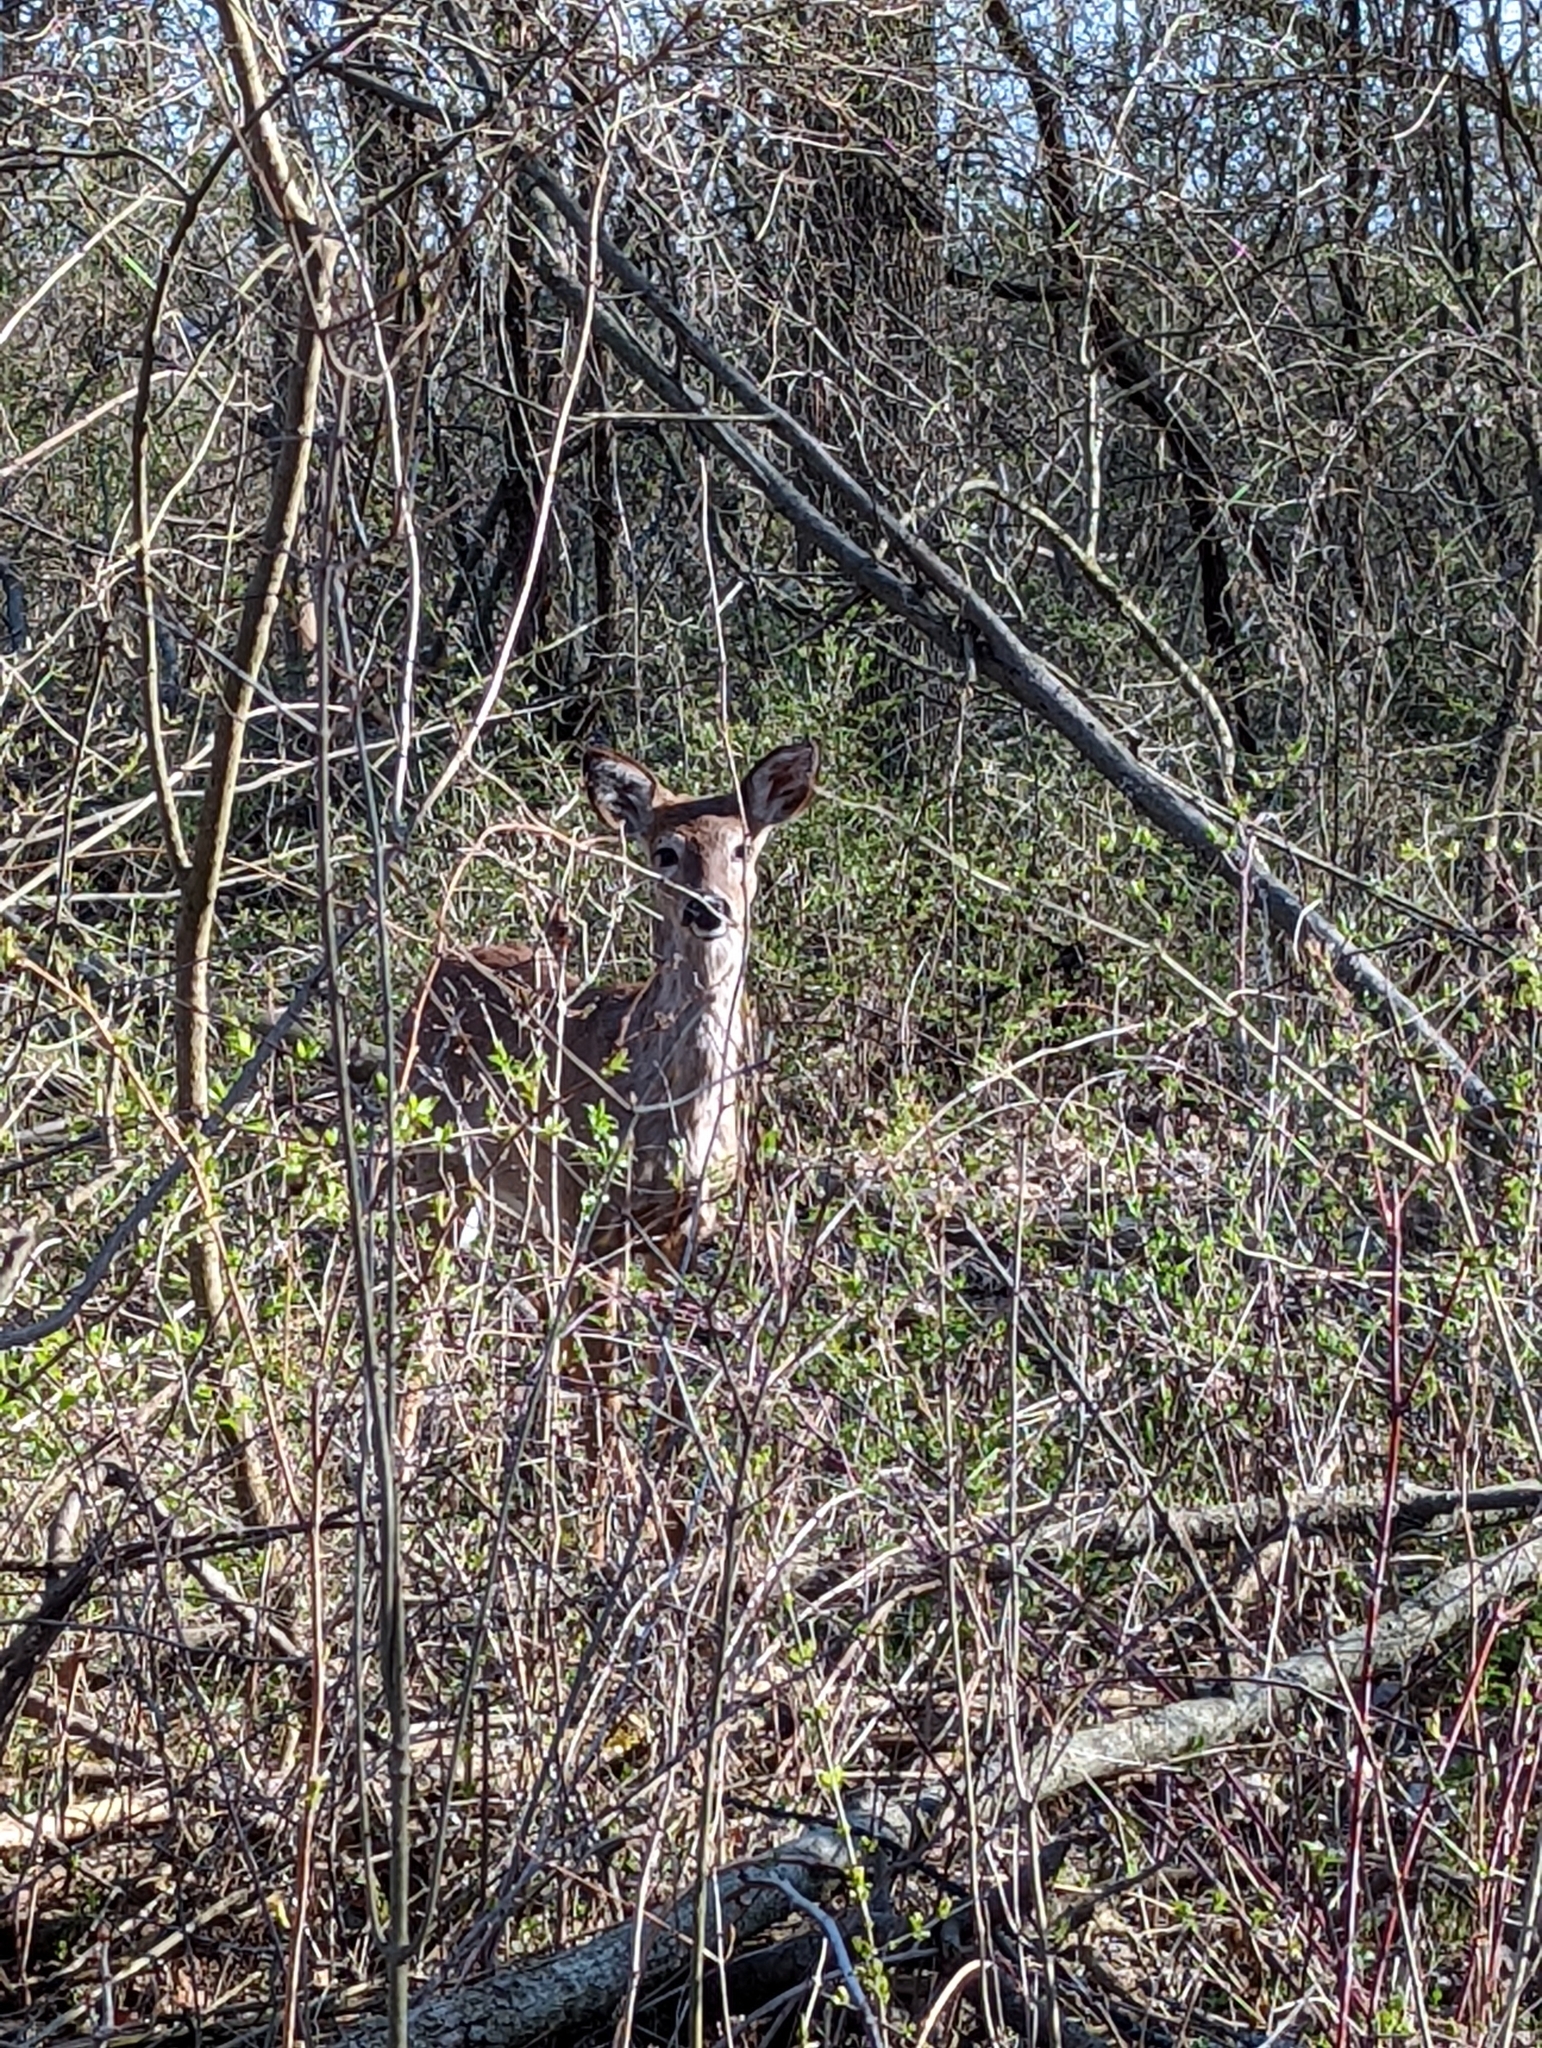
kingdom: Animalia
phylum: Chordata
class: Mammalia
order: Artiodactyla
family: Cervidae
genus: Odocoileus
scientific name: Odocoileus virginianus
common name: White-tailed deer
